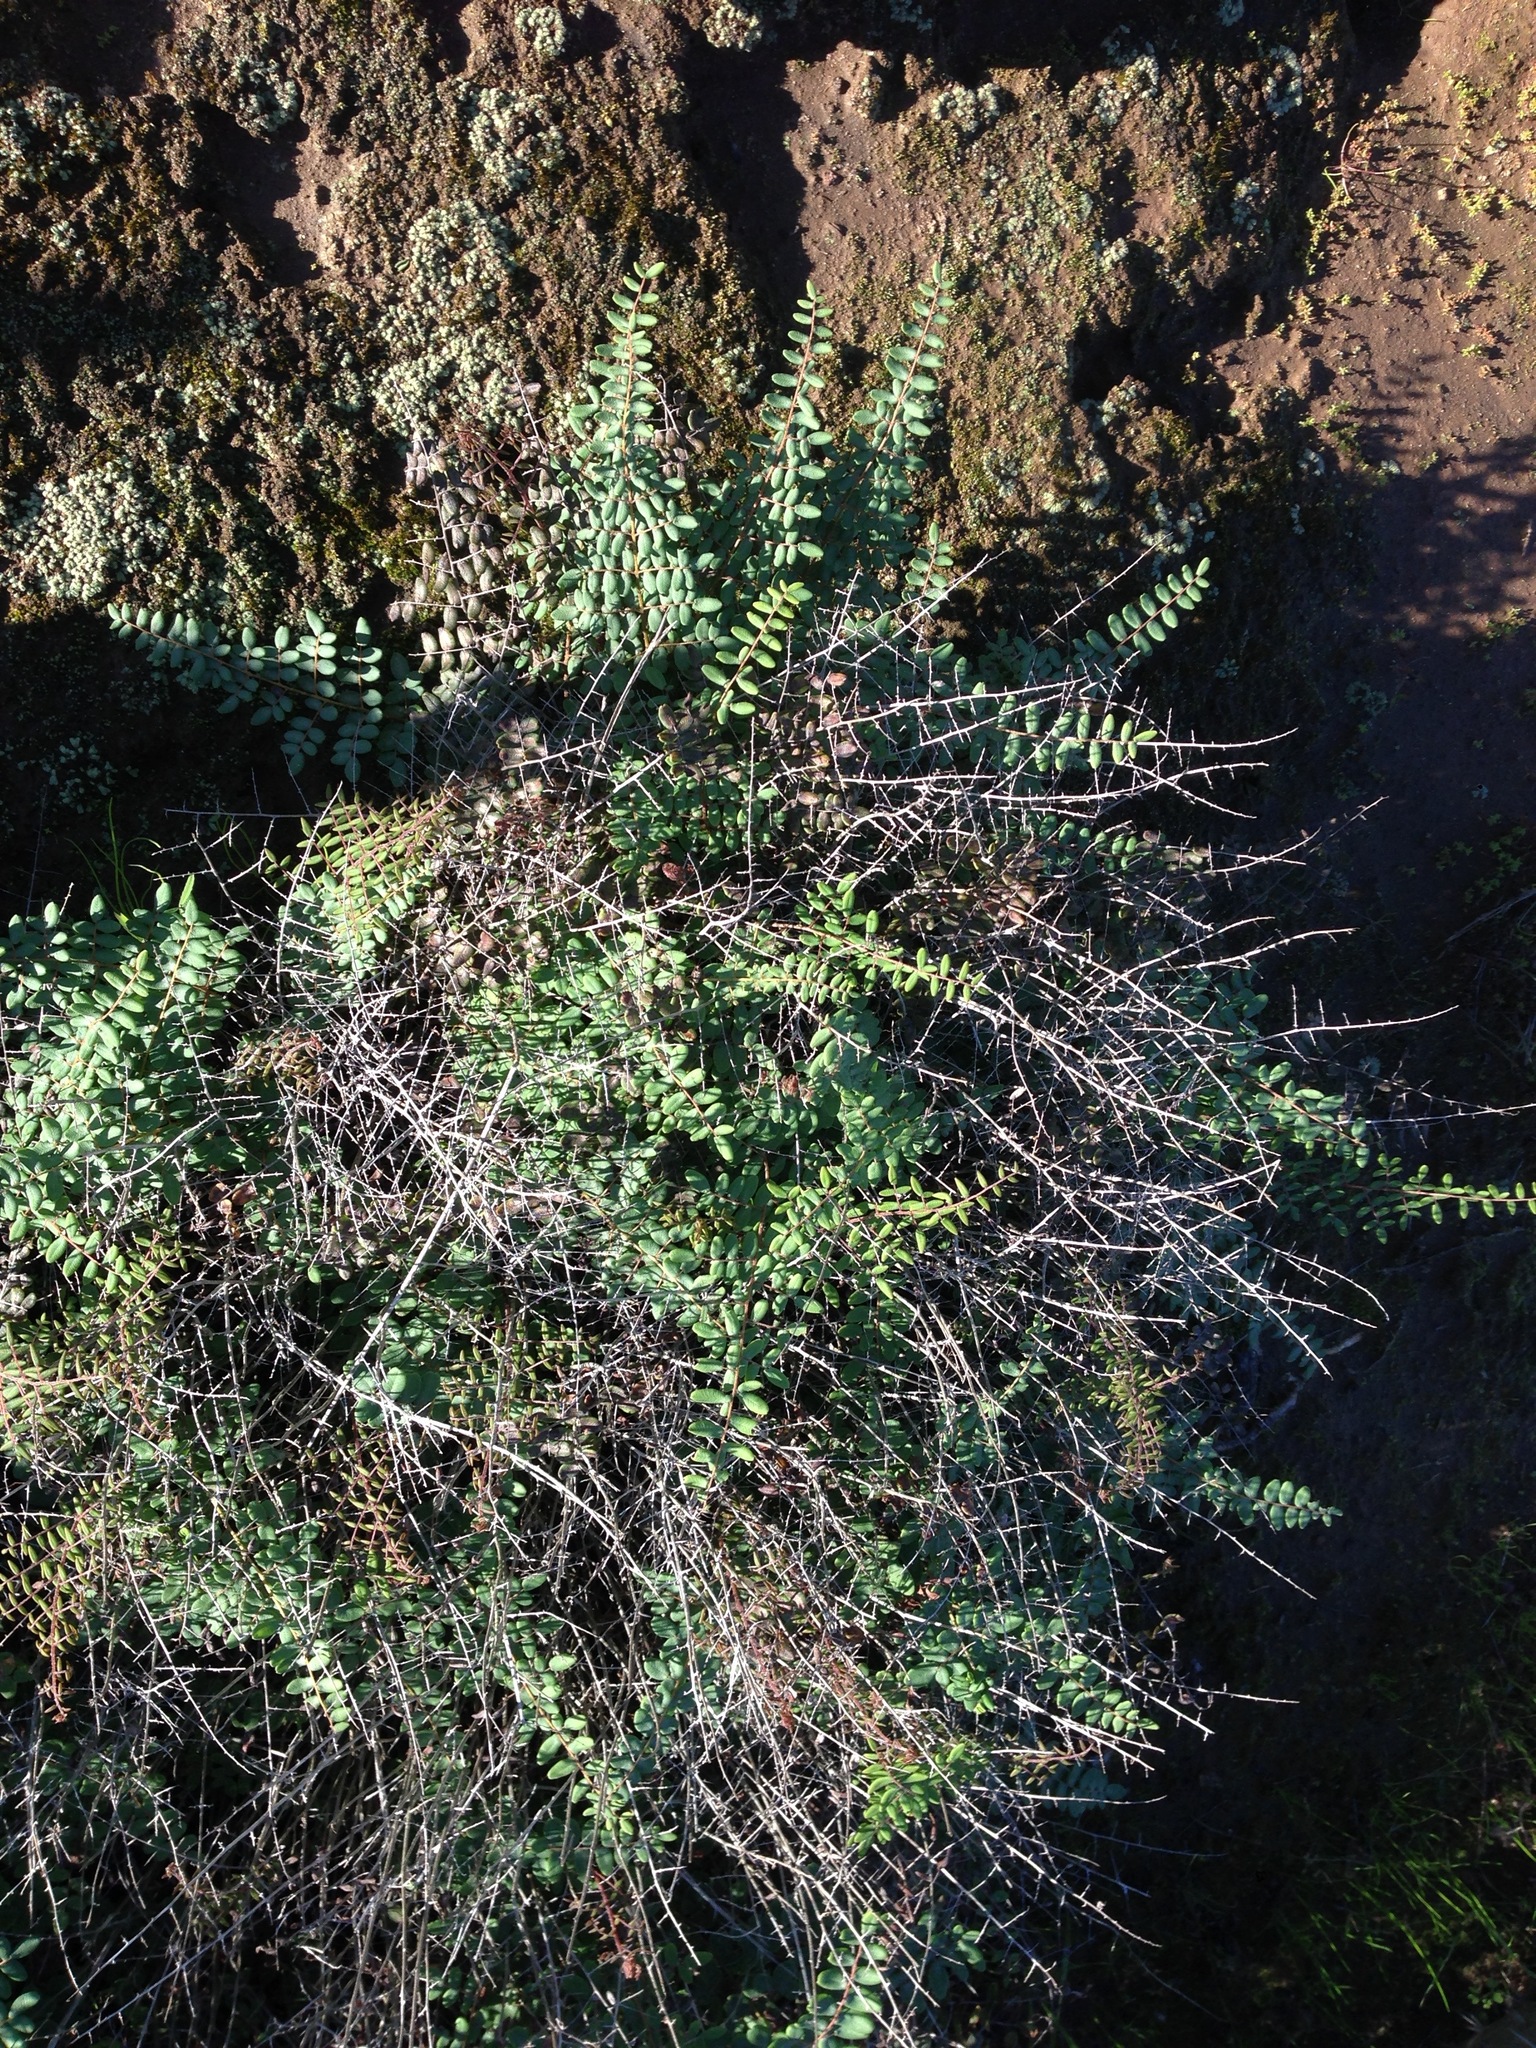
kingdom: Plantae
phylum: Tracheophyta
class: Polypodiopsida
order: Polypodiales
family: Pteridaceae
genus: Pellaea
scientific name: Pellaea andromedifolia
